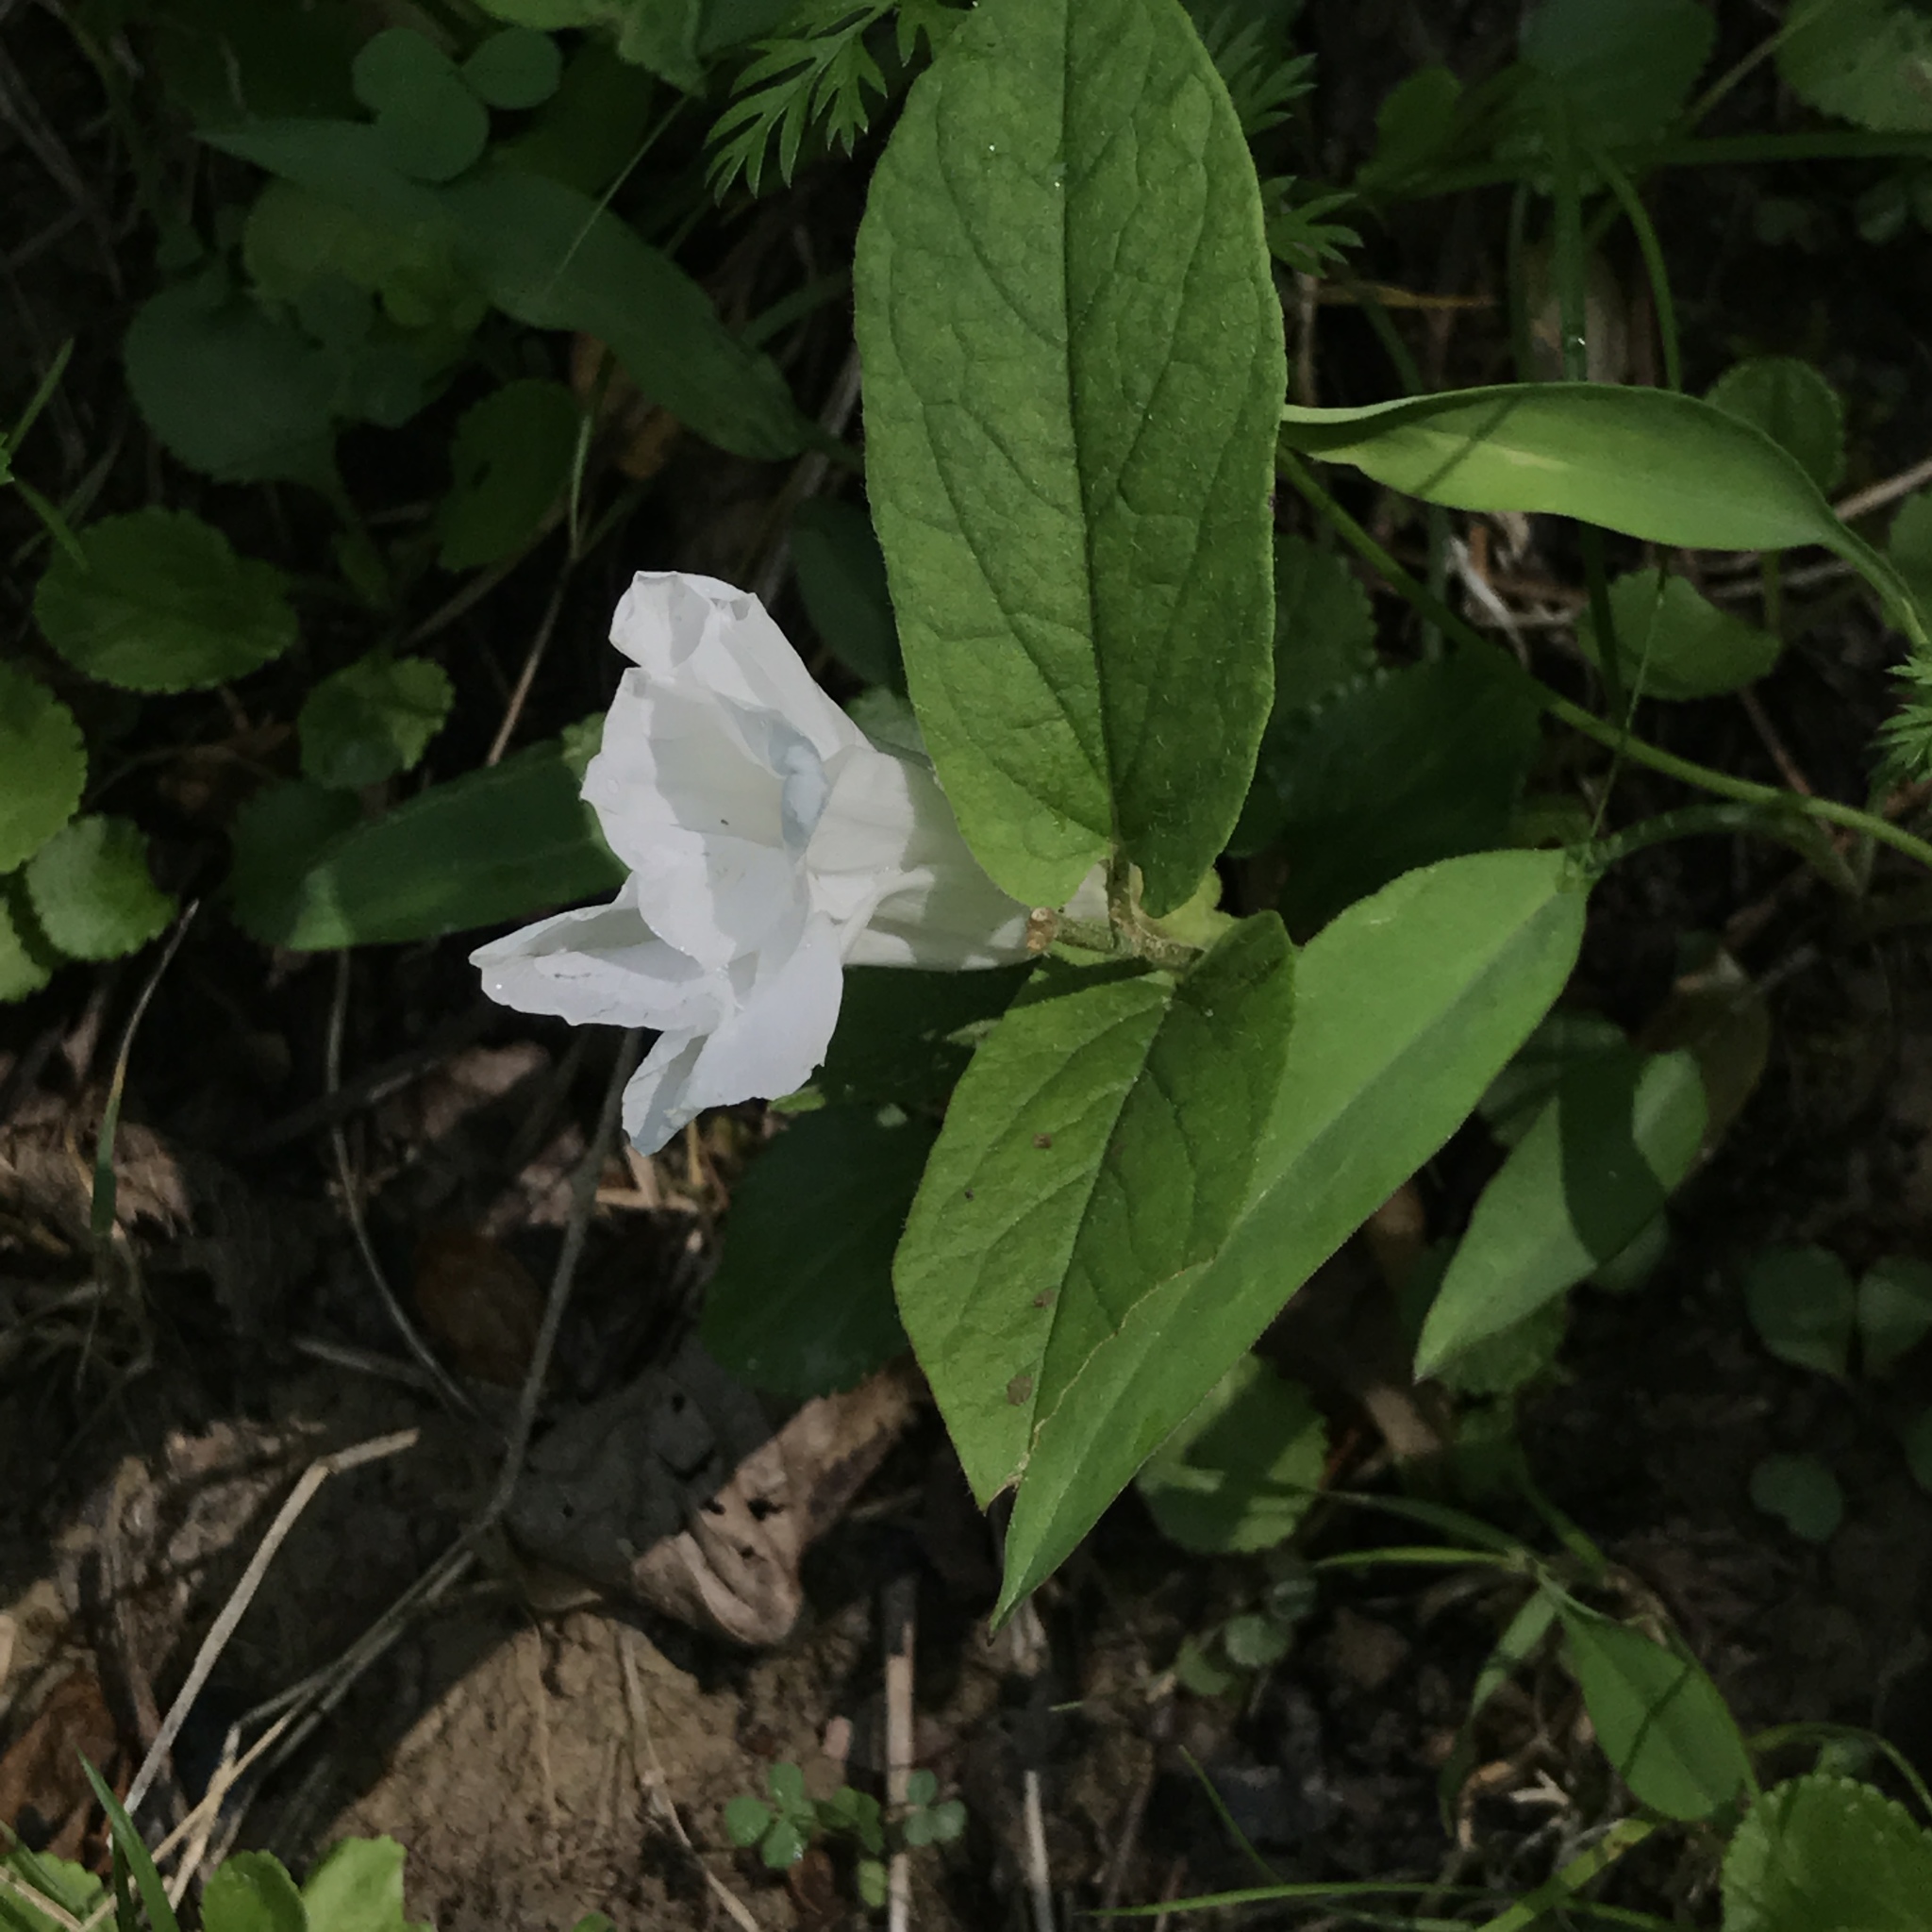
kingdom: Plantae
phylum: Tracheophyta
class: Magnoliopsida
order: Solanales
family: Convolvulaceae
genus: Calystegia
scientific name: Calystegia spithamaea
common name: Dwarf bindweed
